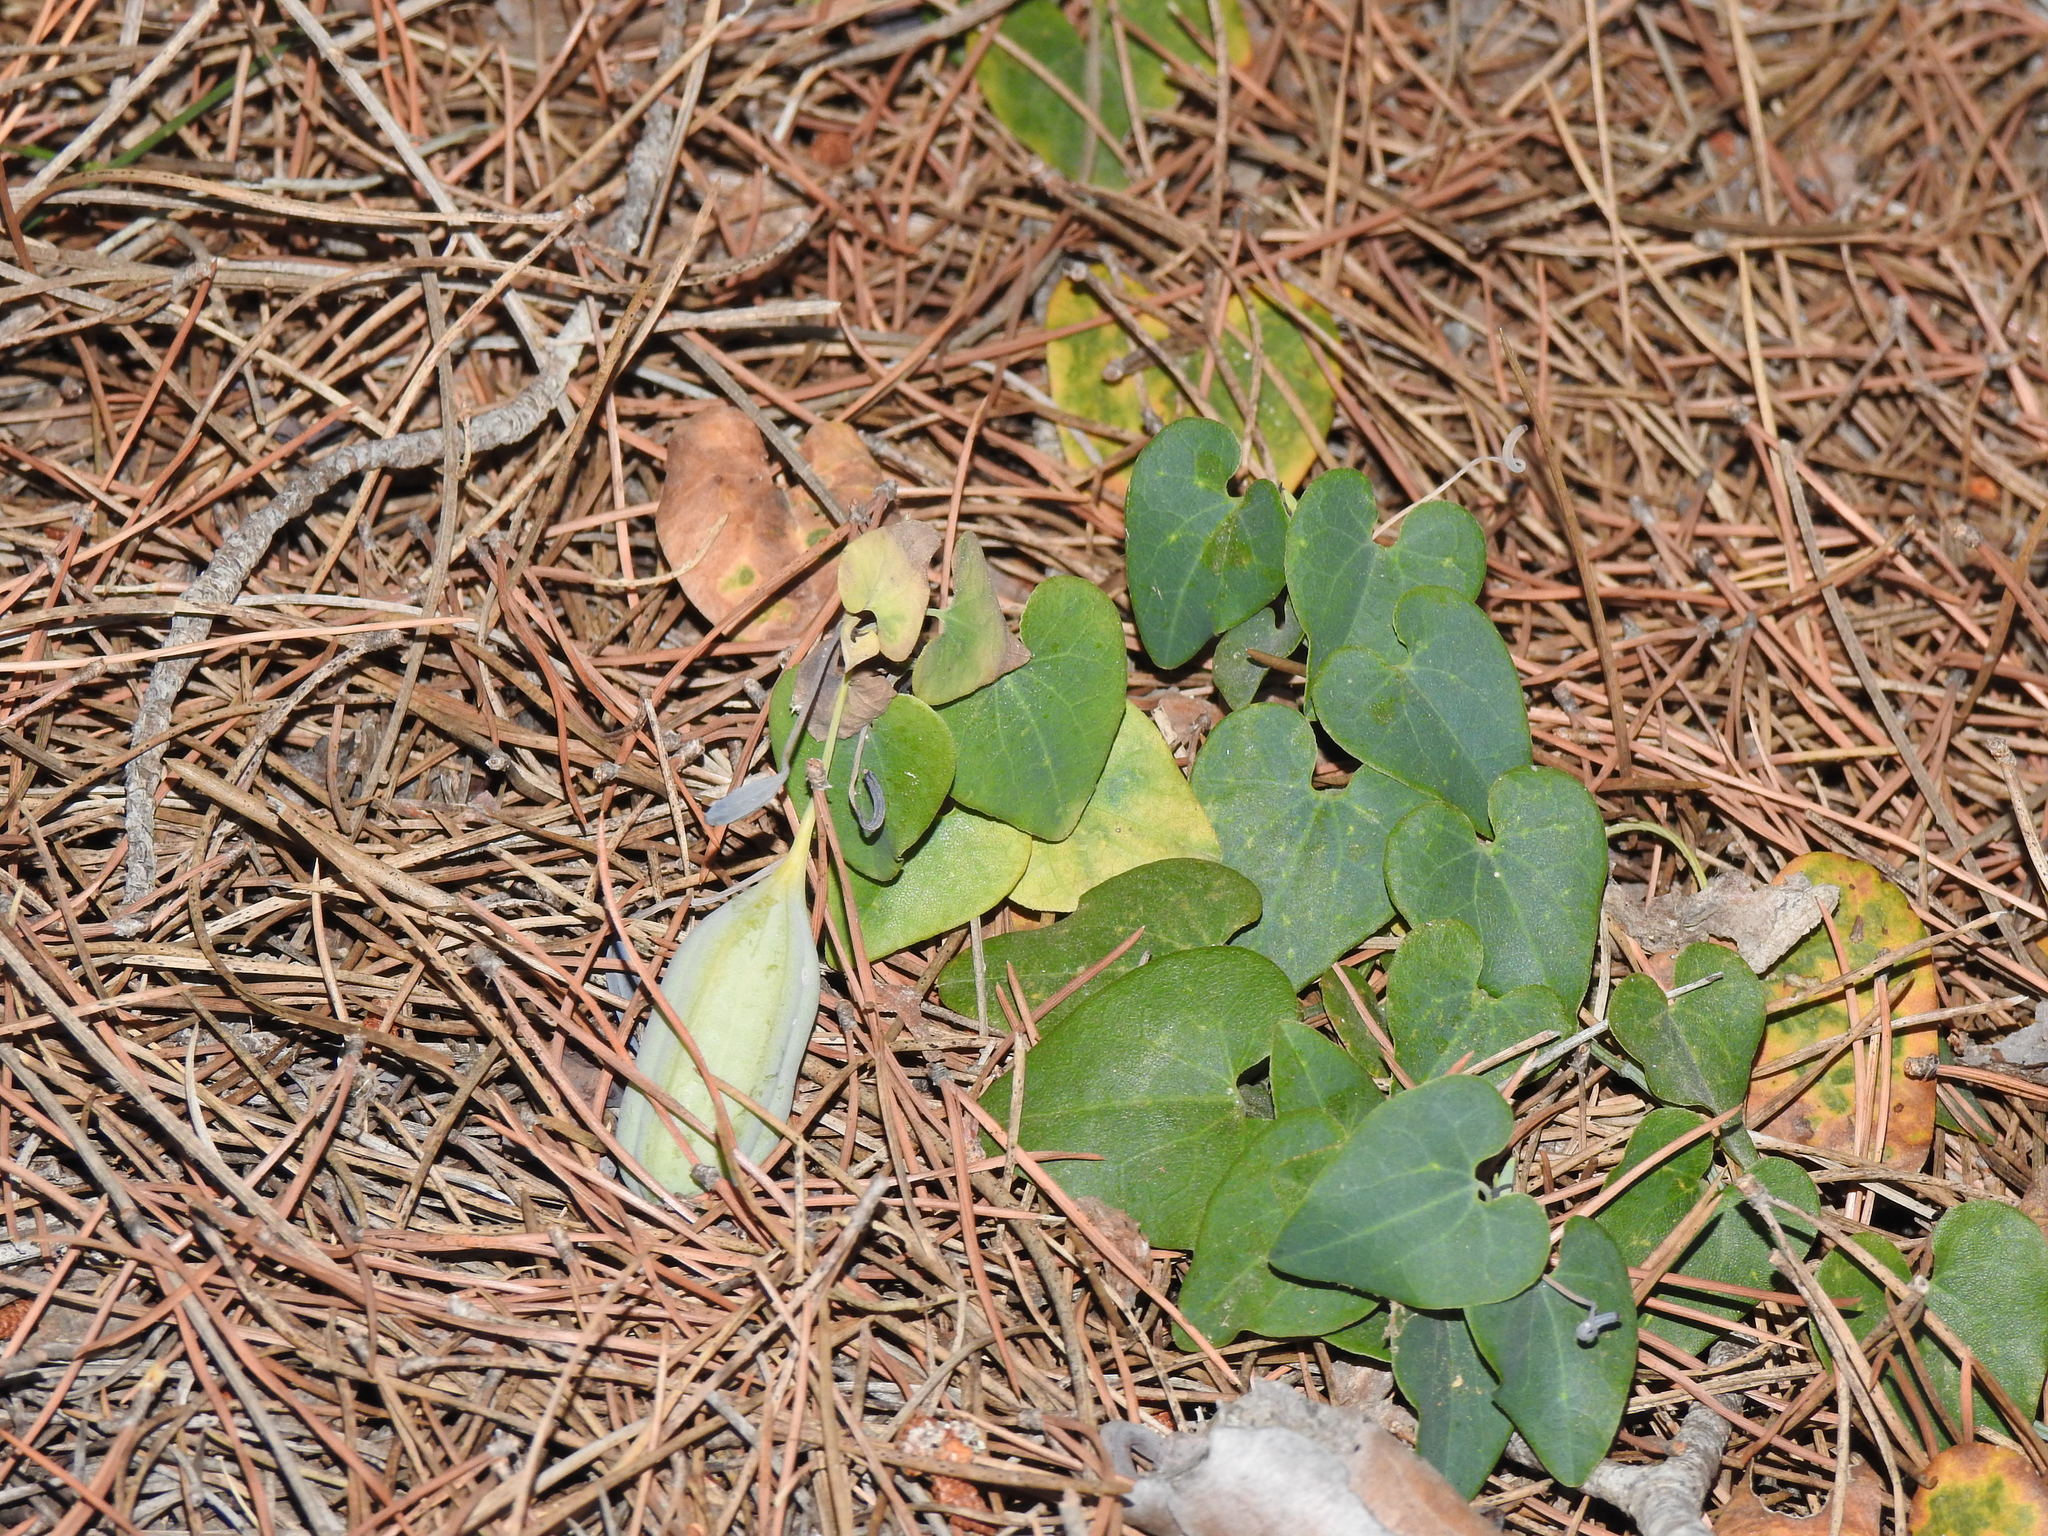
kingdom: Plantae
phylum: Tracheophyta
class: Magnoliopsida
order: Piperales
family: Aristolochiaceae
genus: Aristolochia
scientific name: Aristolochia baetica
